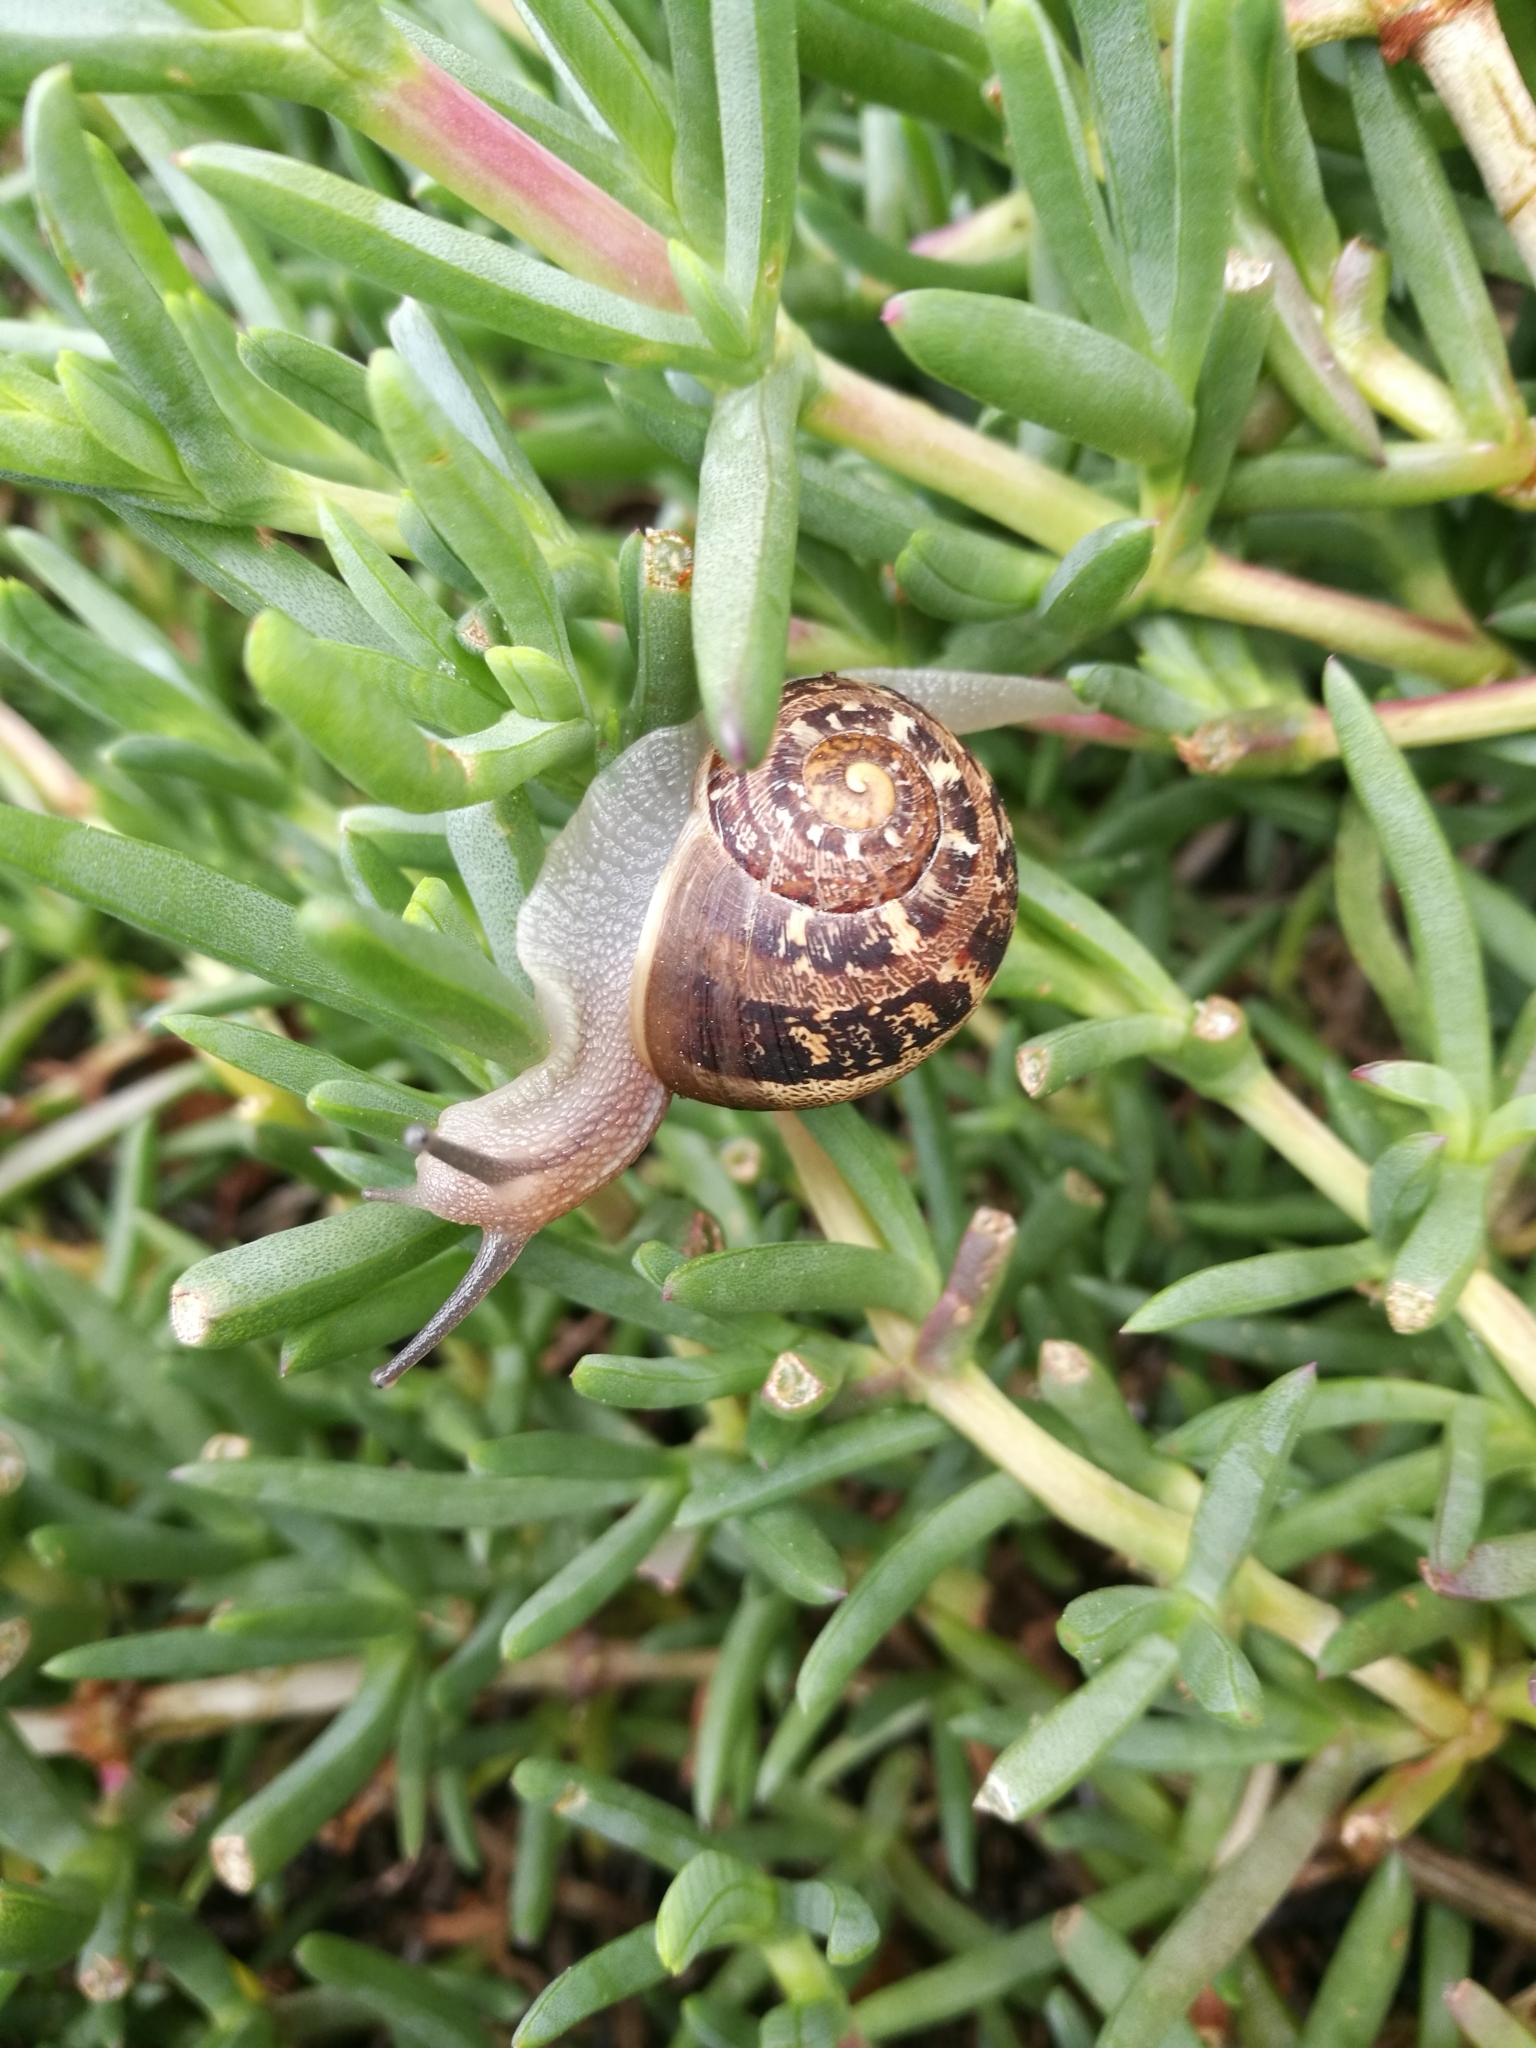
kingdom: Animalia
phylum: Mollusca
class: Gastropoda
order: Stylommatophora
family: Helicidae
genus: Cornu
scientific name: Cornu aspersum
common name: Brown garden snail
